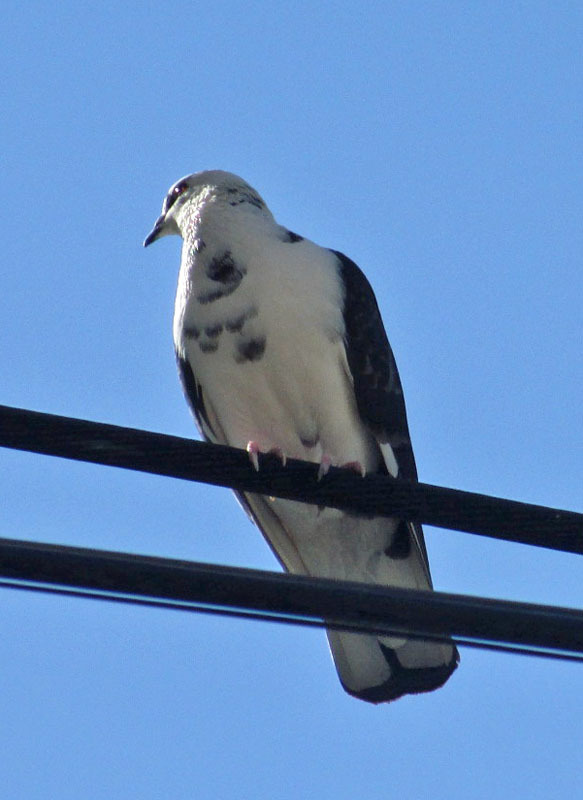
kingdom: Animalia
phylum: Chordata
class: Aves
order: Columbiformes
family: Columbidae
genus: Columba
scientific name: Columba livia
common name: Rock pigeon
